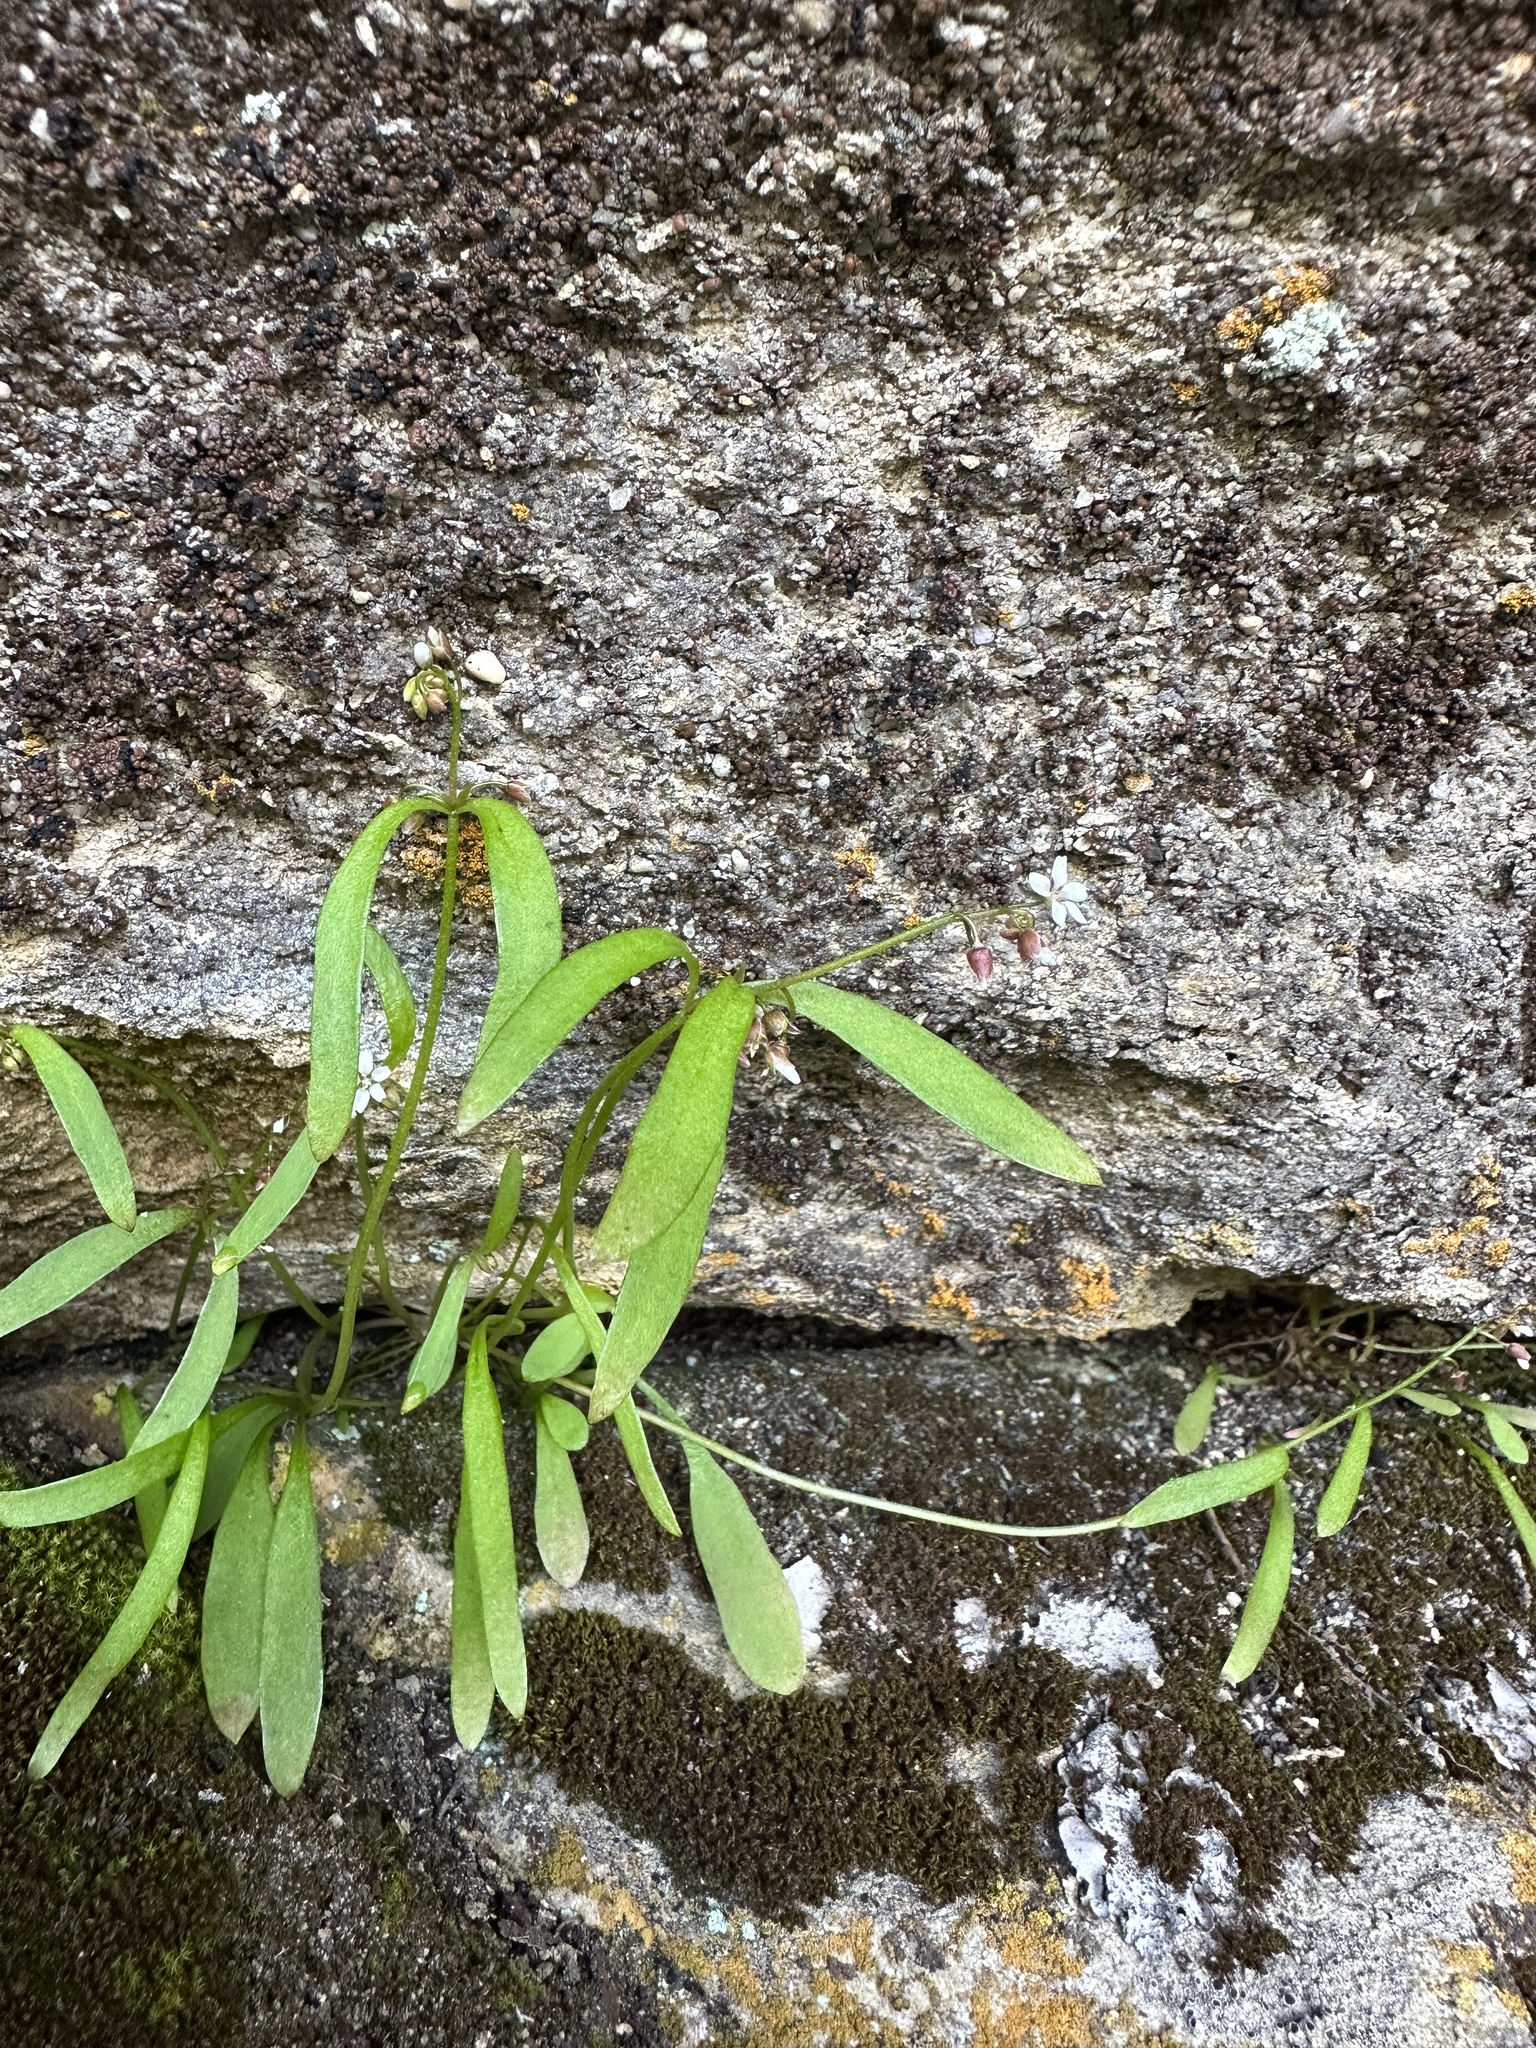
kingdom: Plantae
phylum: Tracheophyta
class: Magnoliopsida
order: Caryophyllales
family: Montiaceae
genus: Claytonia
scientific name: Claytonia parviflora
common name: Indian-lettuce
